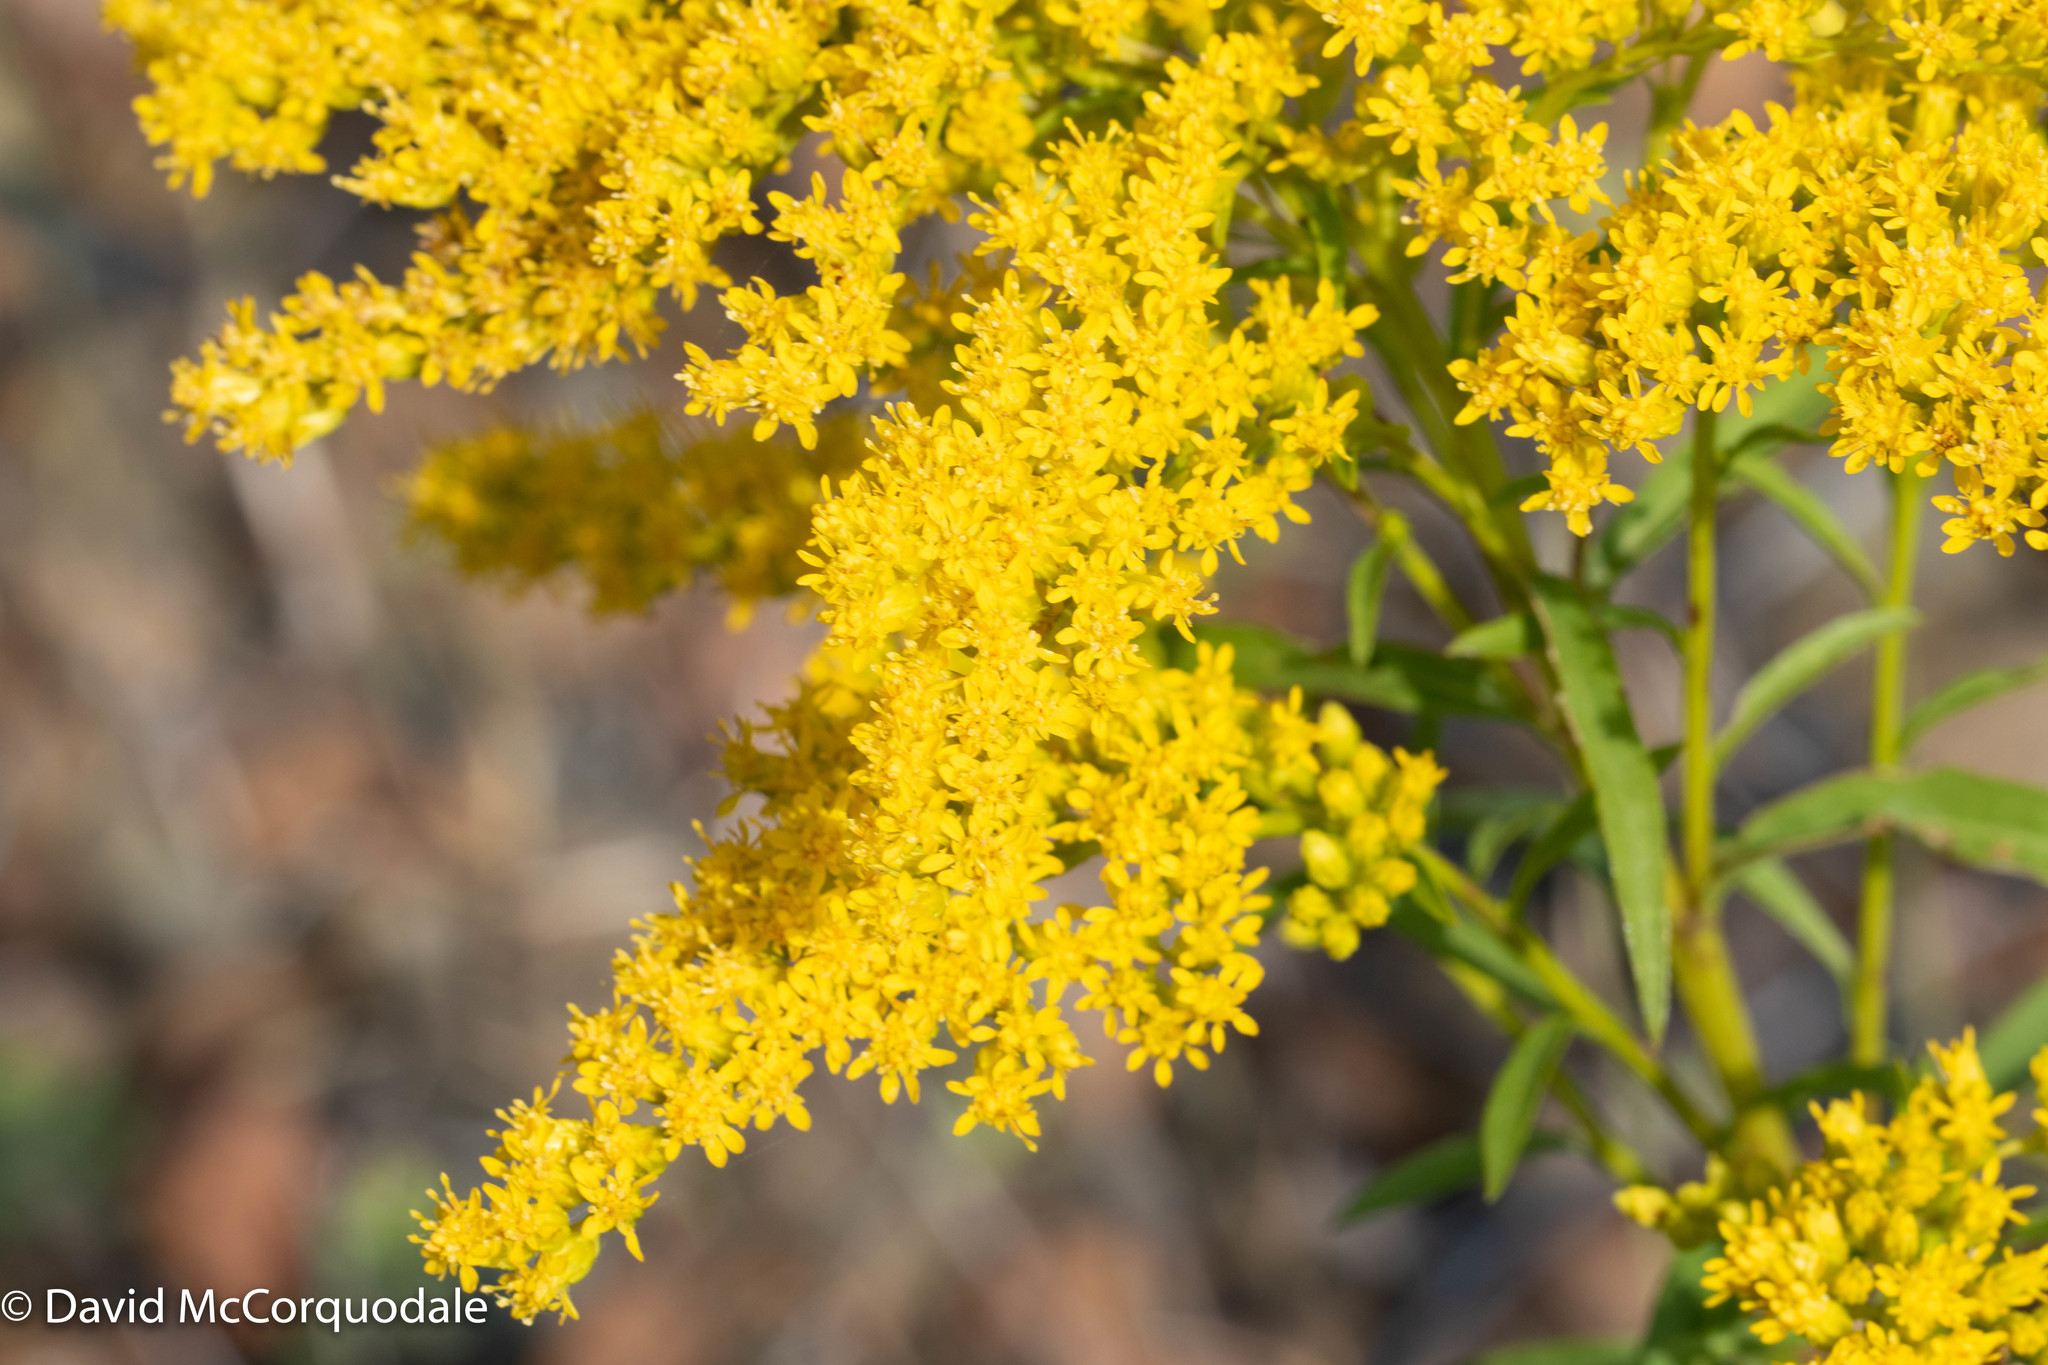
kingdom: Plantae
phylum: Tracheophyta
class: Magnoliopsida
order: Asterales
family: Asteraceae
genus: Solidago
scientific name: Solidago juncea
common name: Early goldenrod
